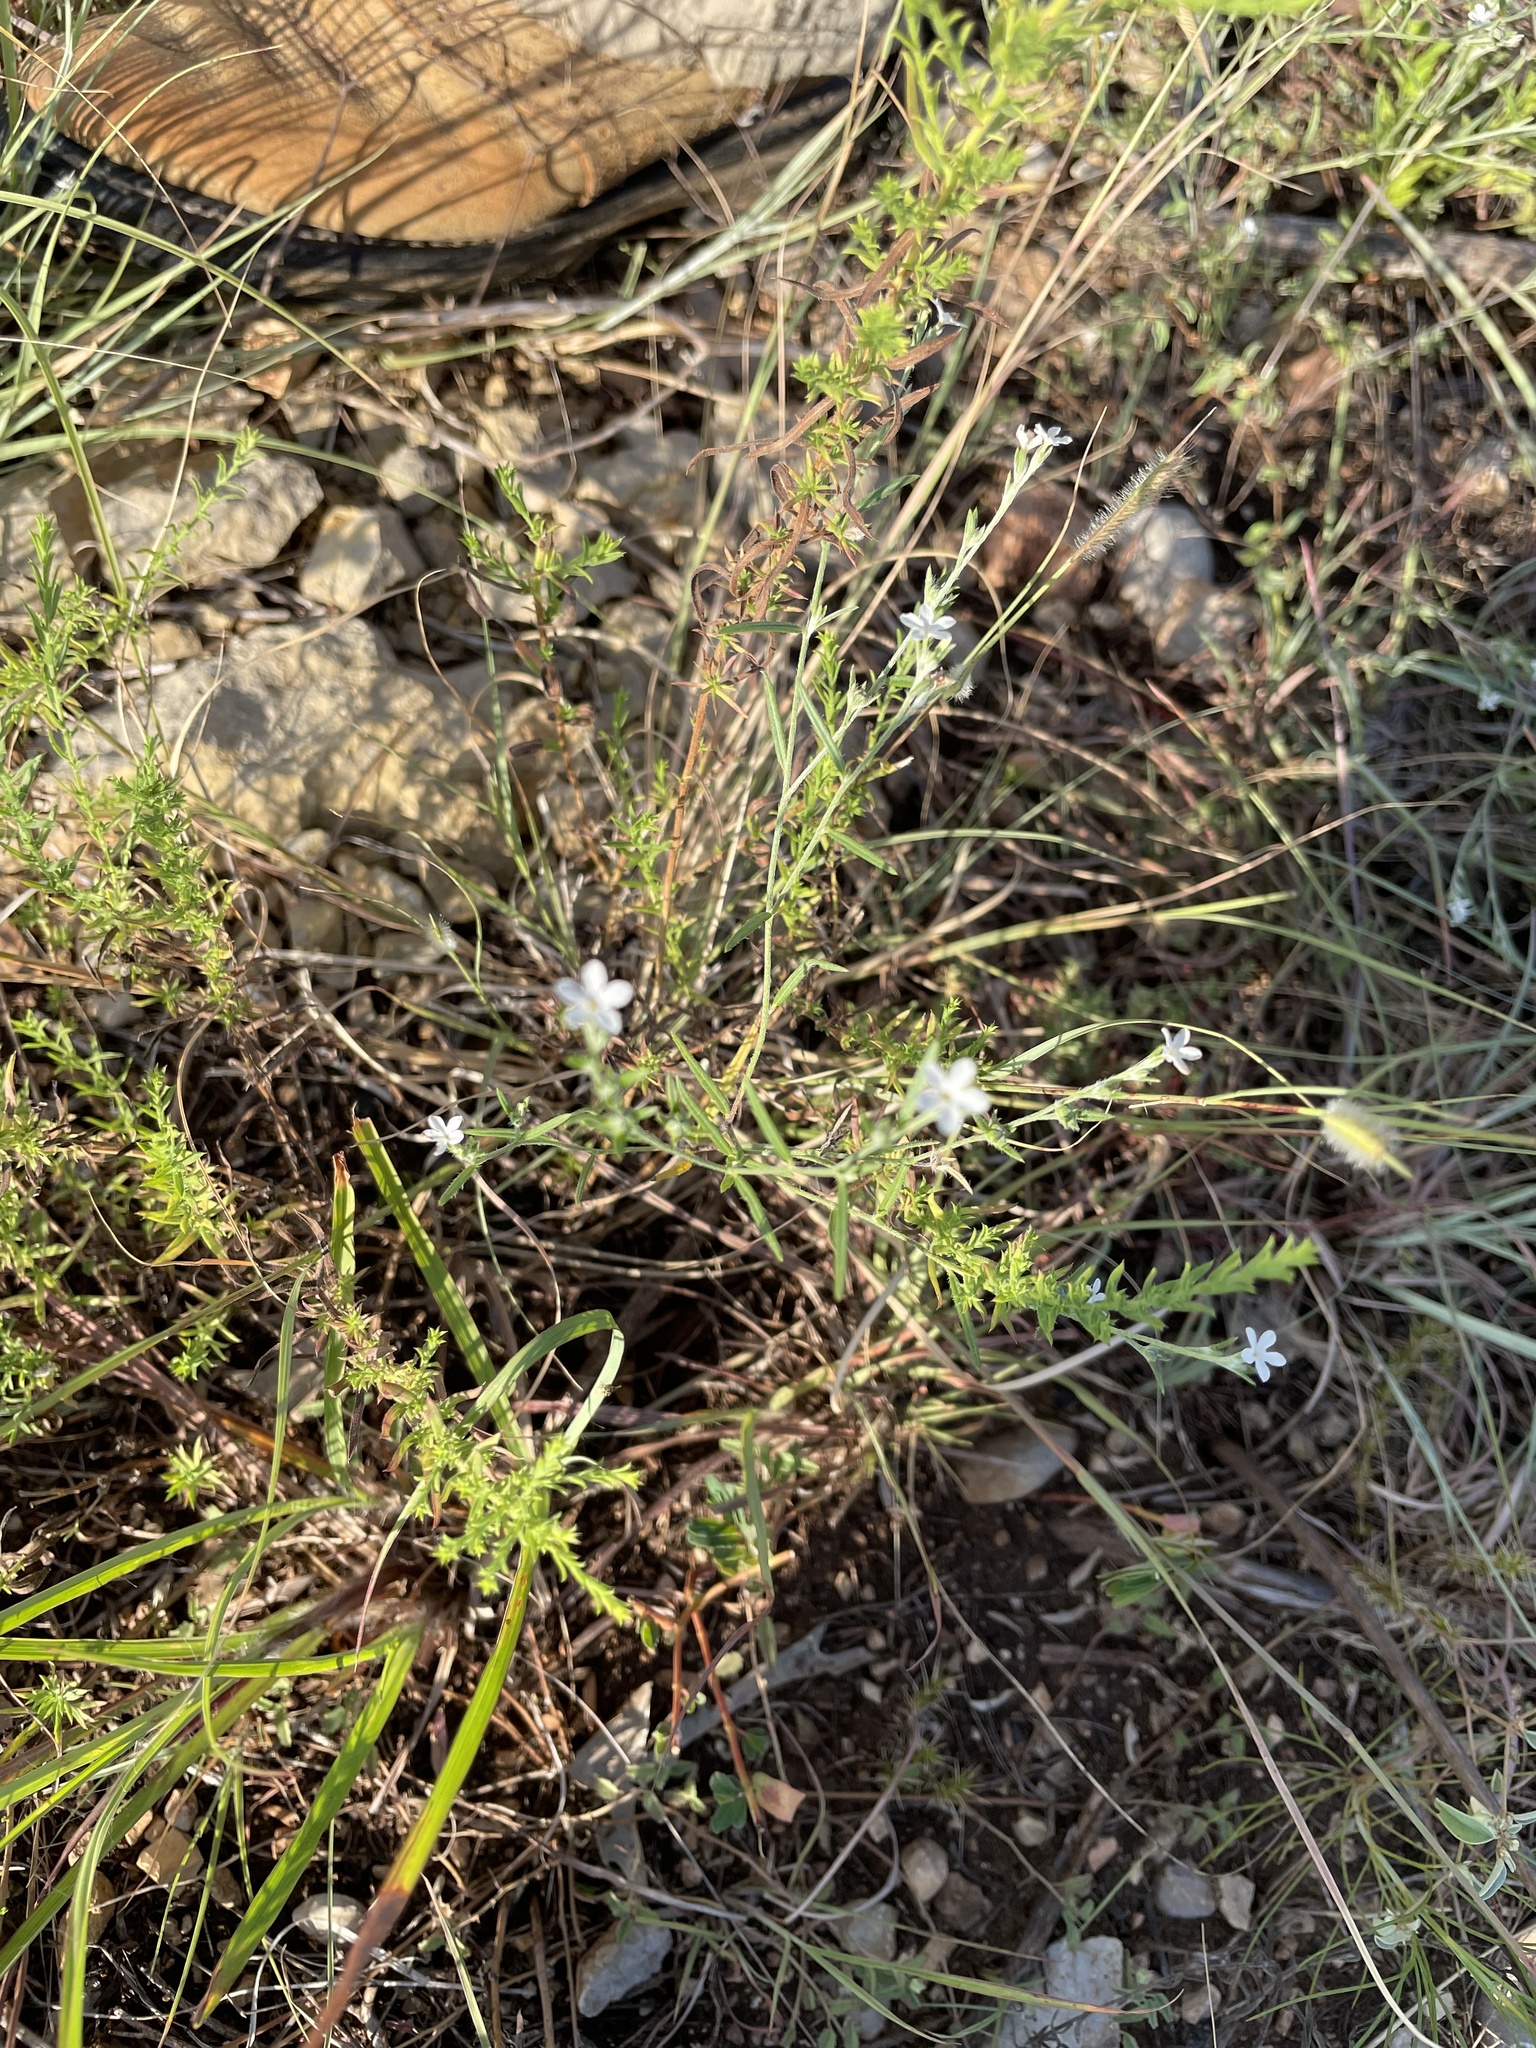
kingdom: Plantae
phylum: Tracheophyta
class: Magnoliopsida
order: Boraginales
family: Heliotropiaceae
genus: Euploca
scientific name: Euploca tenella
